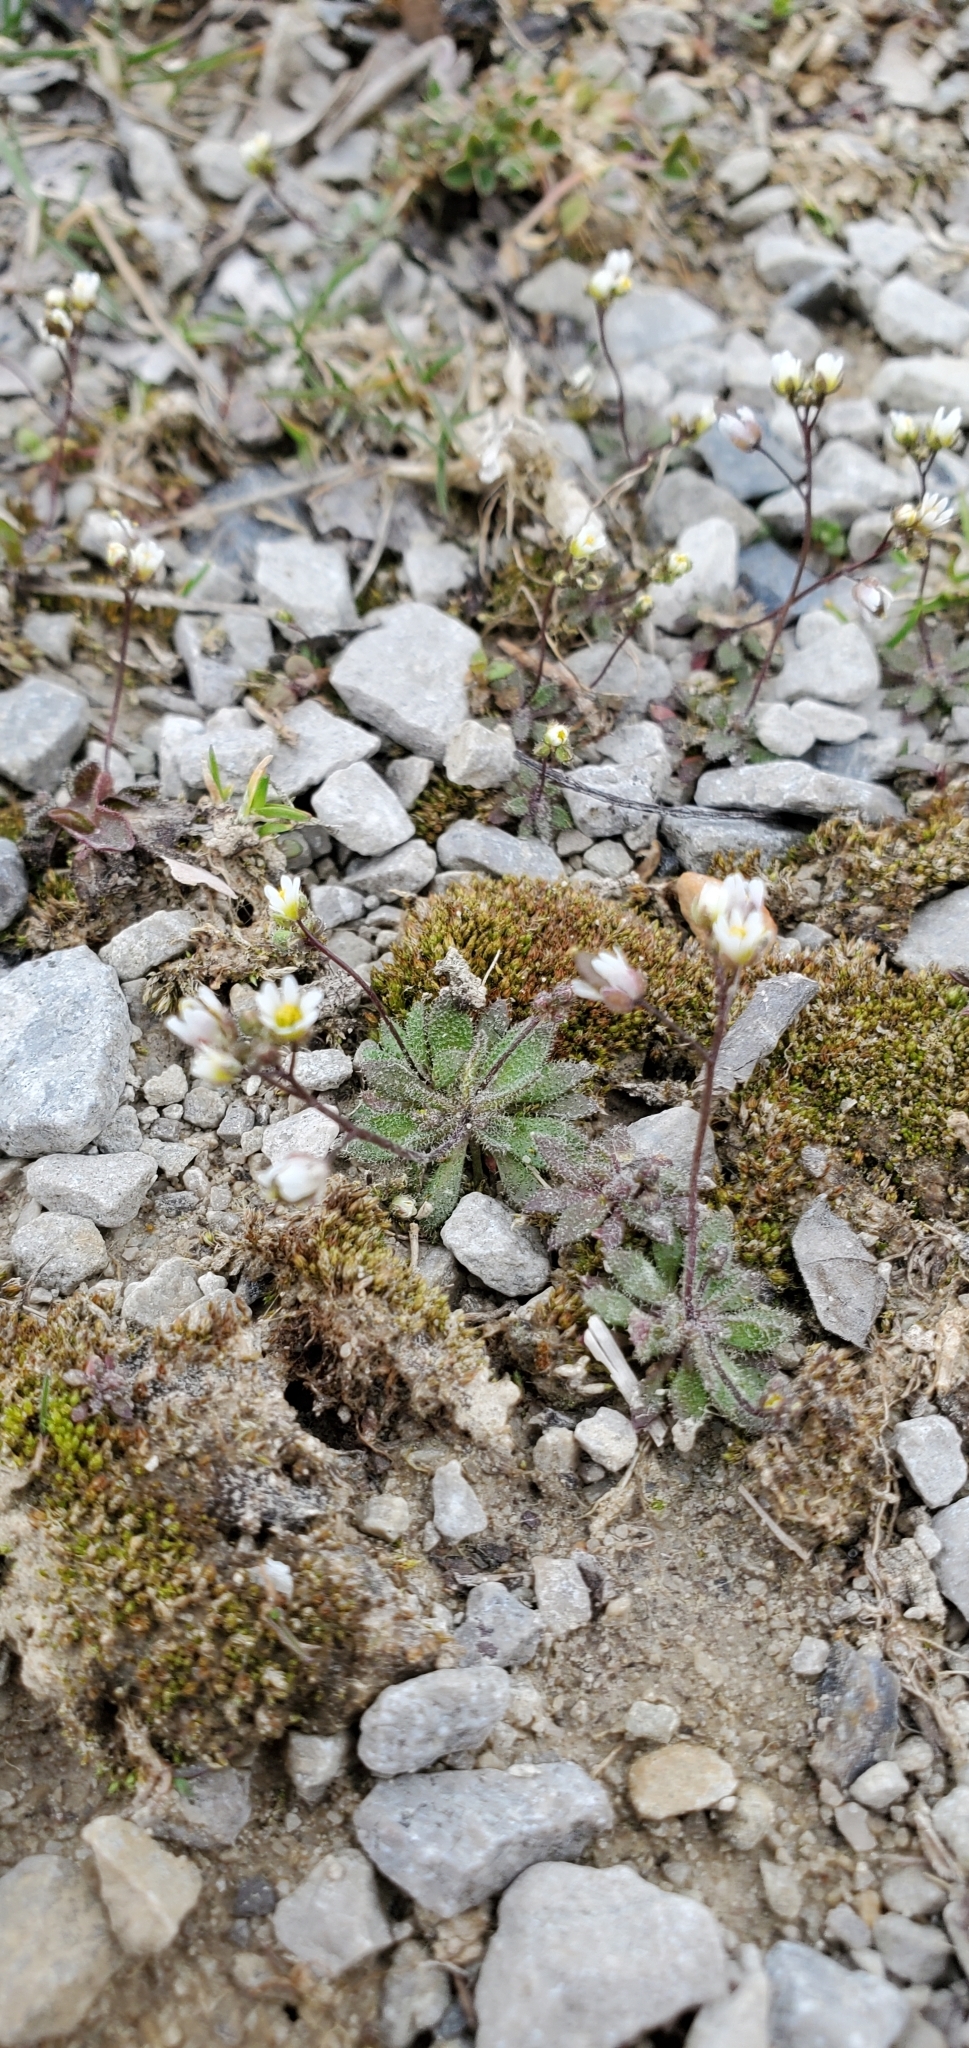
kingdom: Plantae
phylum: Tracheophyta
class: Magnoliopsida
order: Brassicales
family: Brassicaceae
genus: Draba
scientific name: Draba verna
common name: Spring draba
